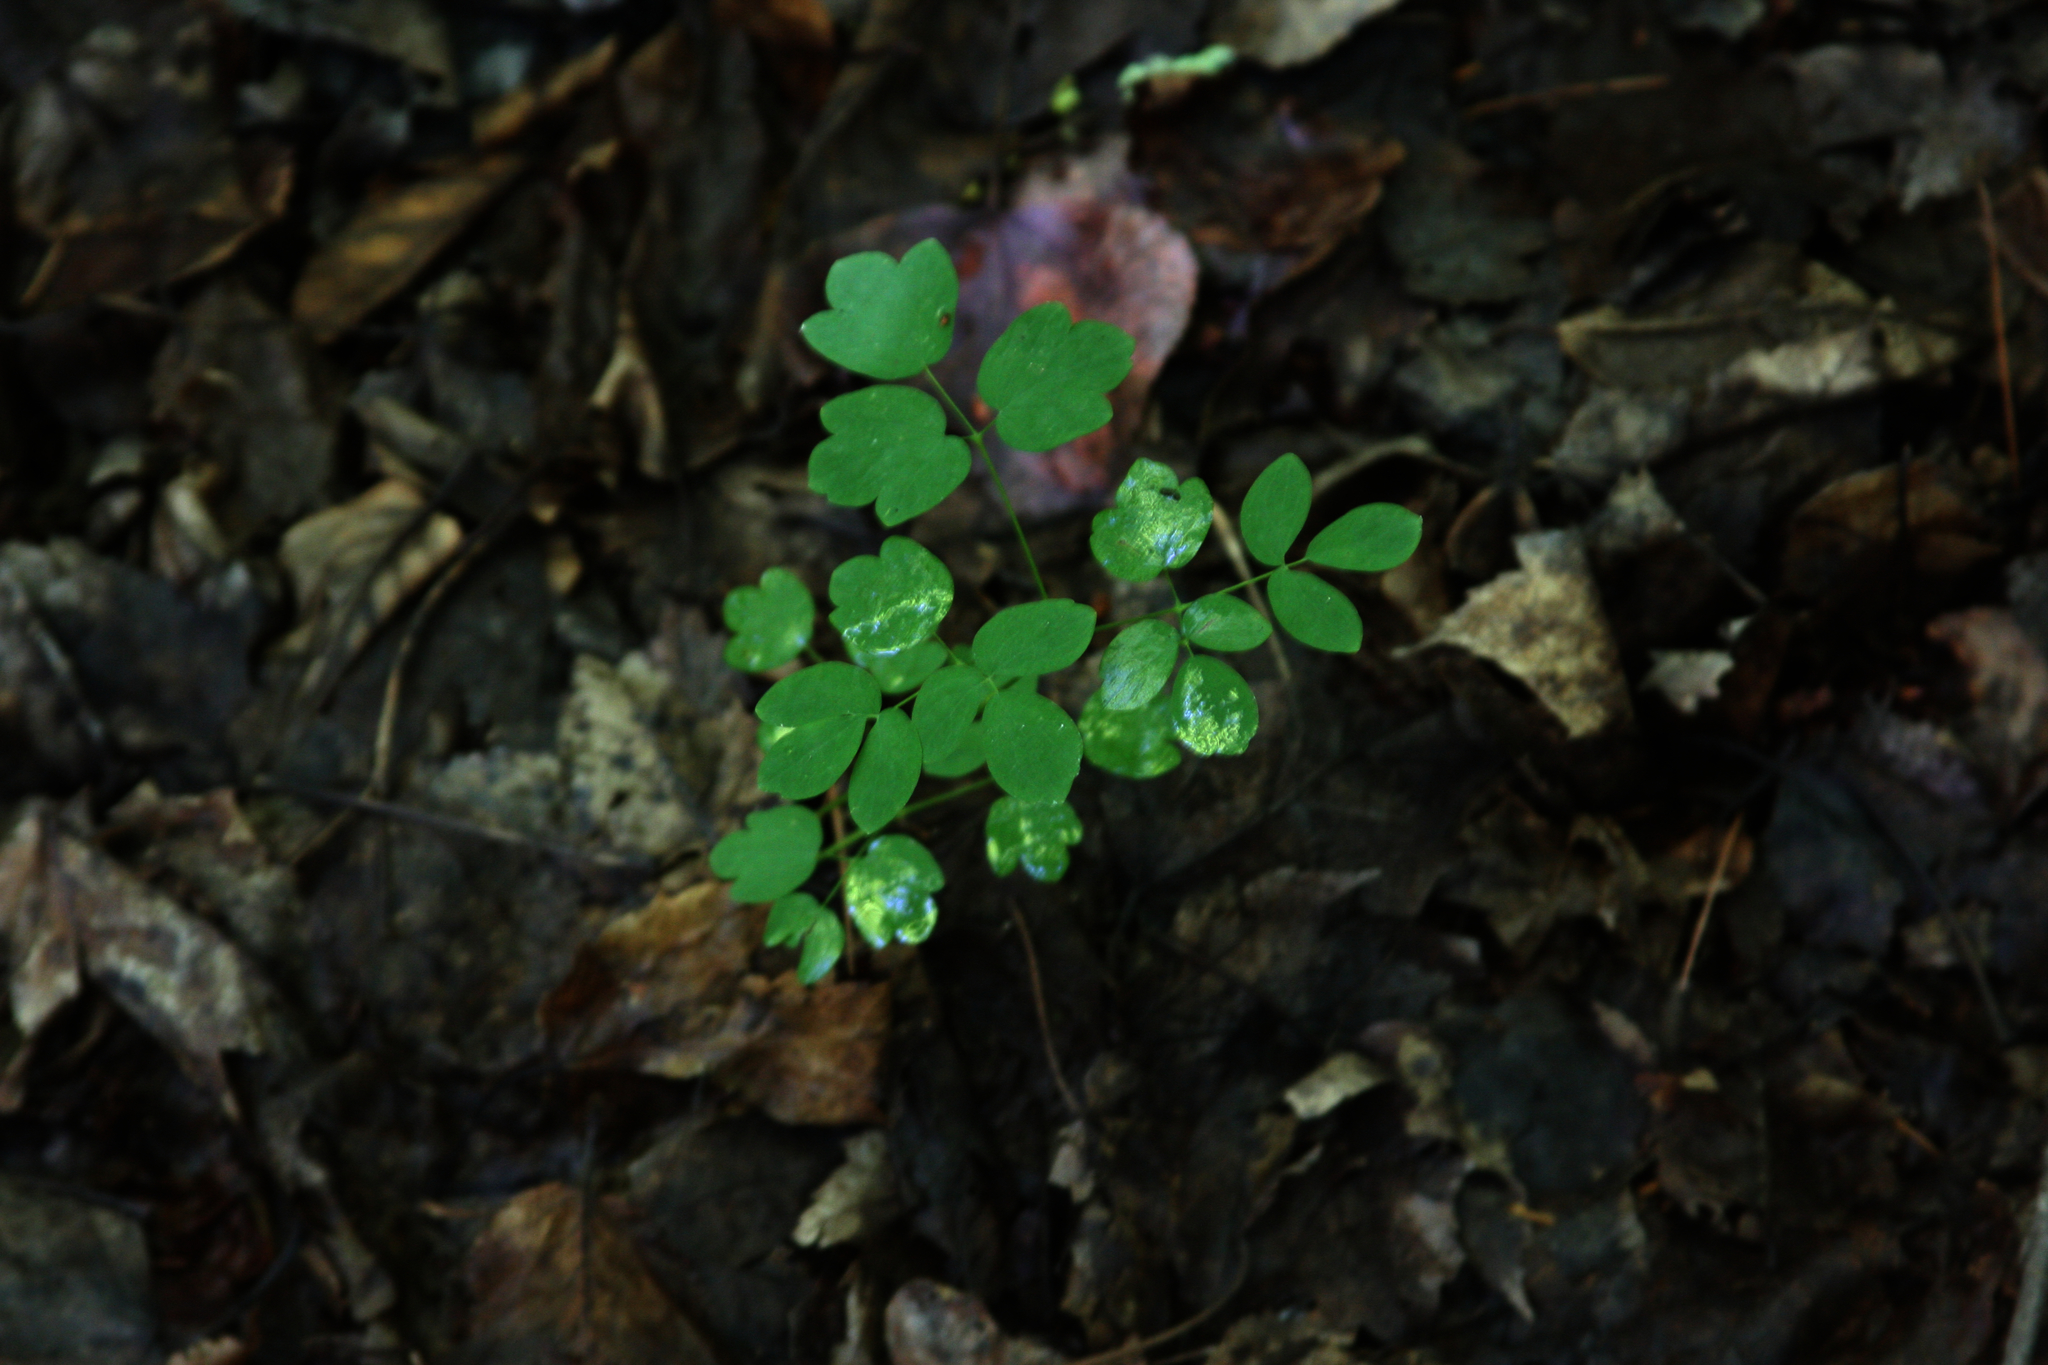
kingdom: Plantae
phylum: Tracheophyta
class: Magnoliopsida
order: Ranunculales
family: Ranunculaceae
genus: Thalictrum
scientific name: Thalictrum pubescens
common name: King-of-the-meadow
